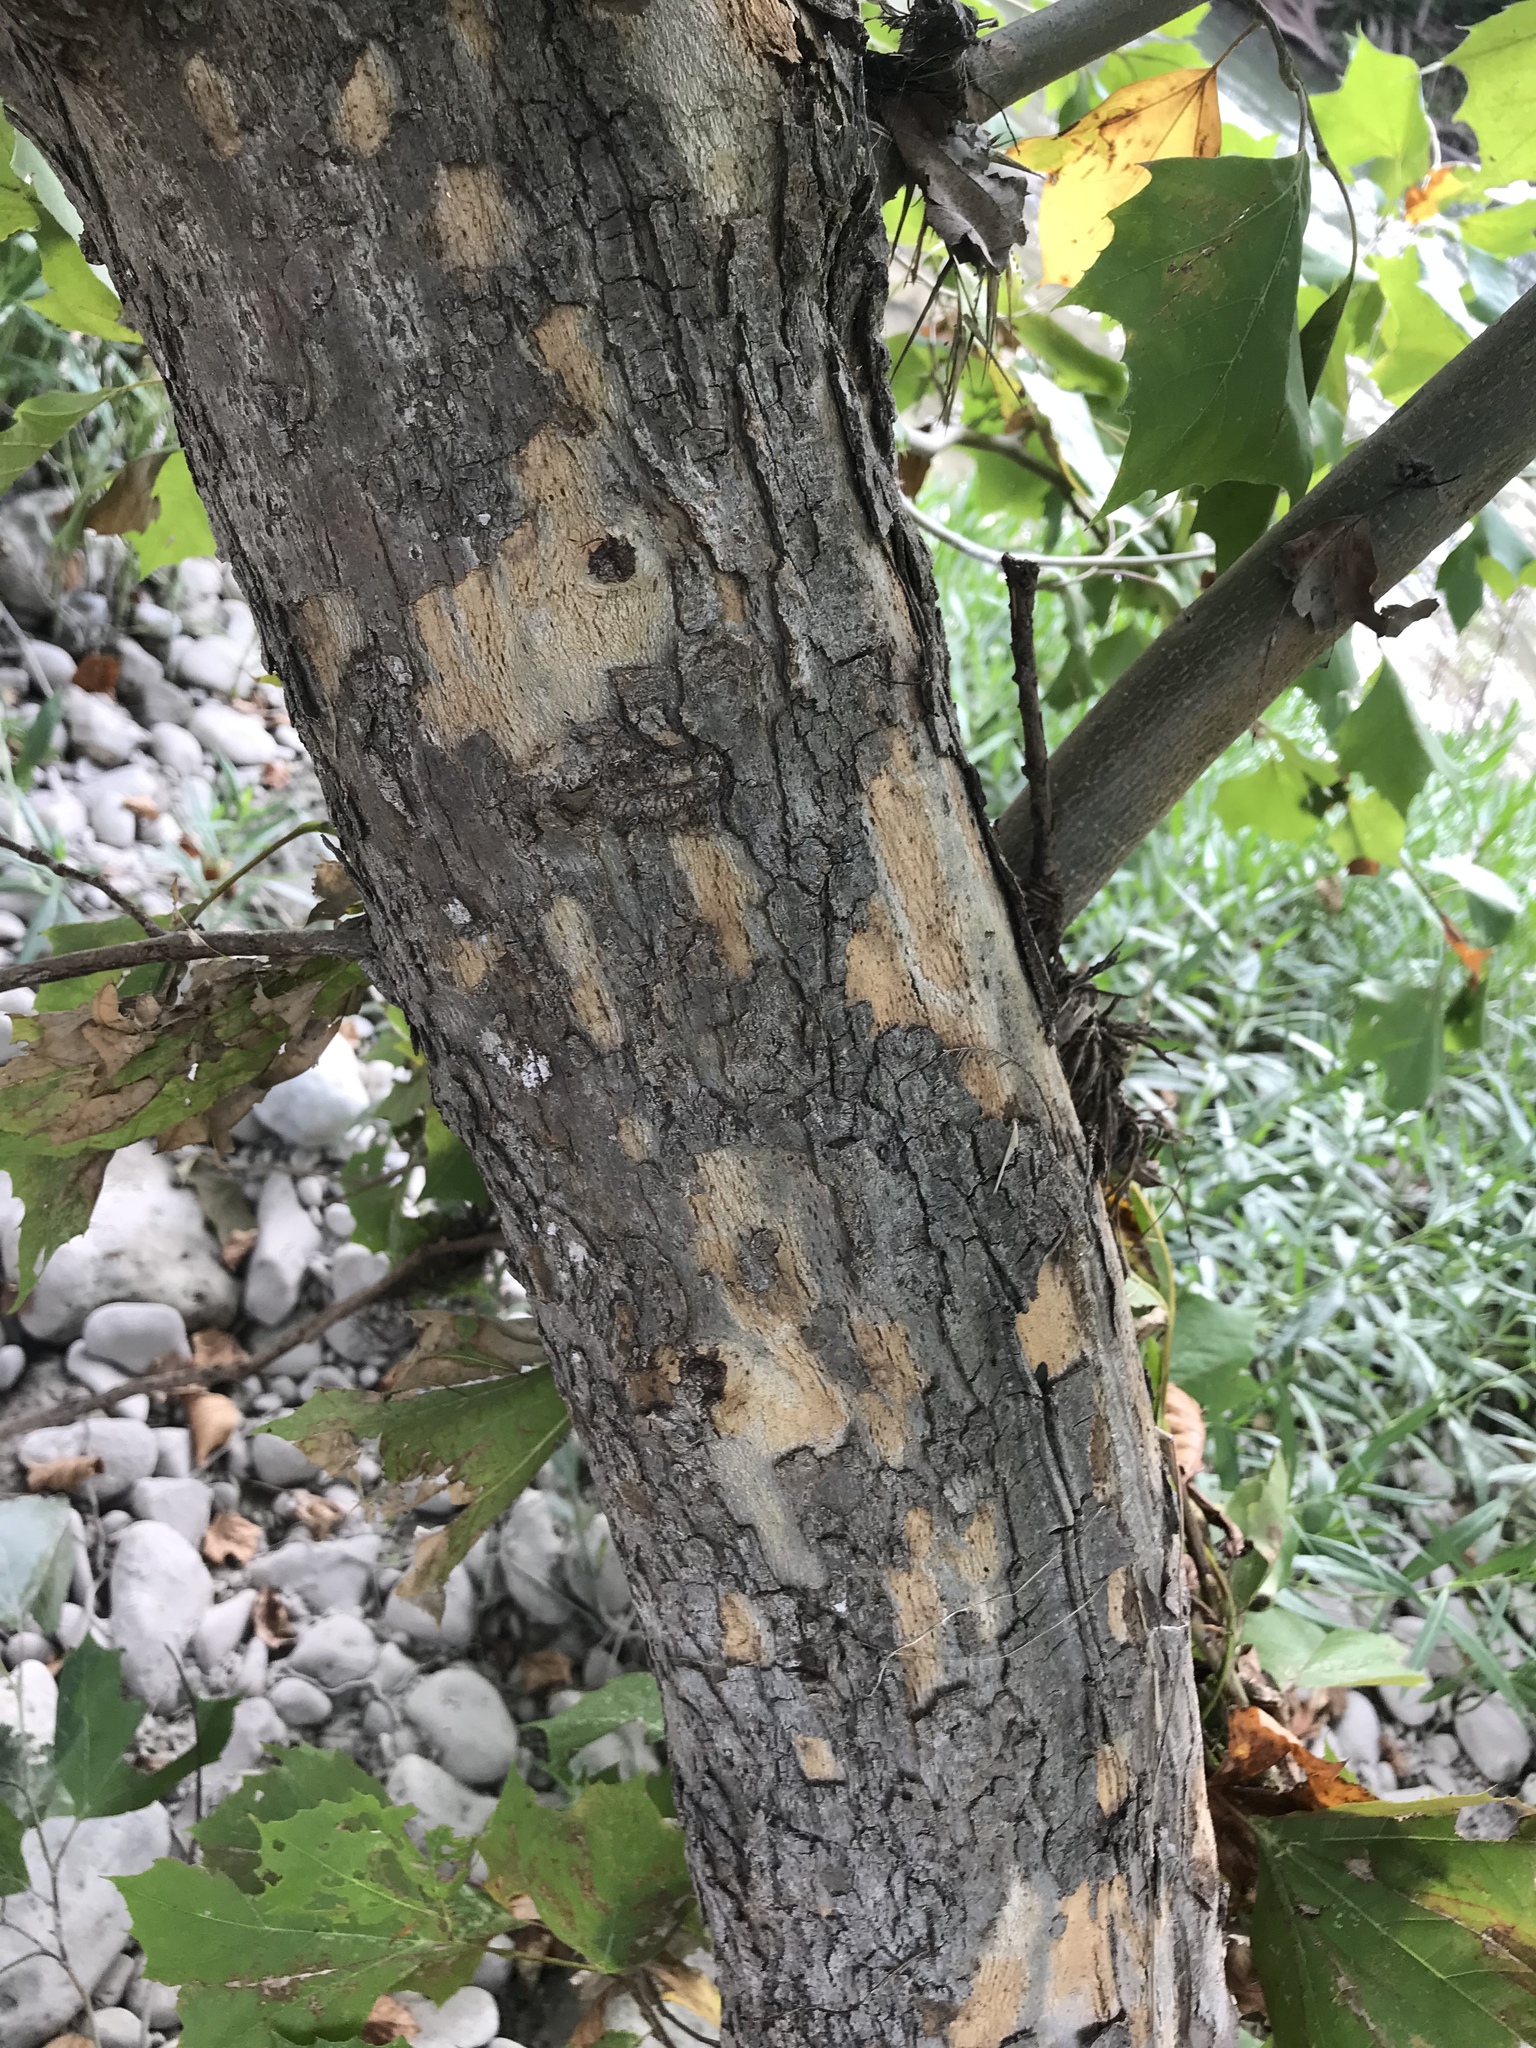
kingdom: Plantae
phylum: Tracheophyta
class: Magnoliopsida
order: Proteales
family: Platanaceae
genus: Platanus
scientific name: Platanus occidentalis
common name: American sycamore
